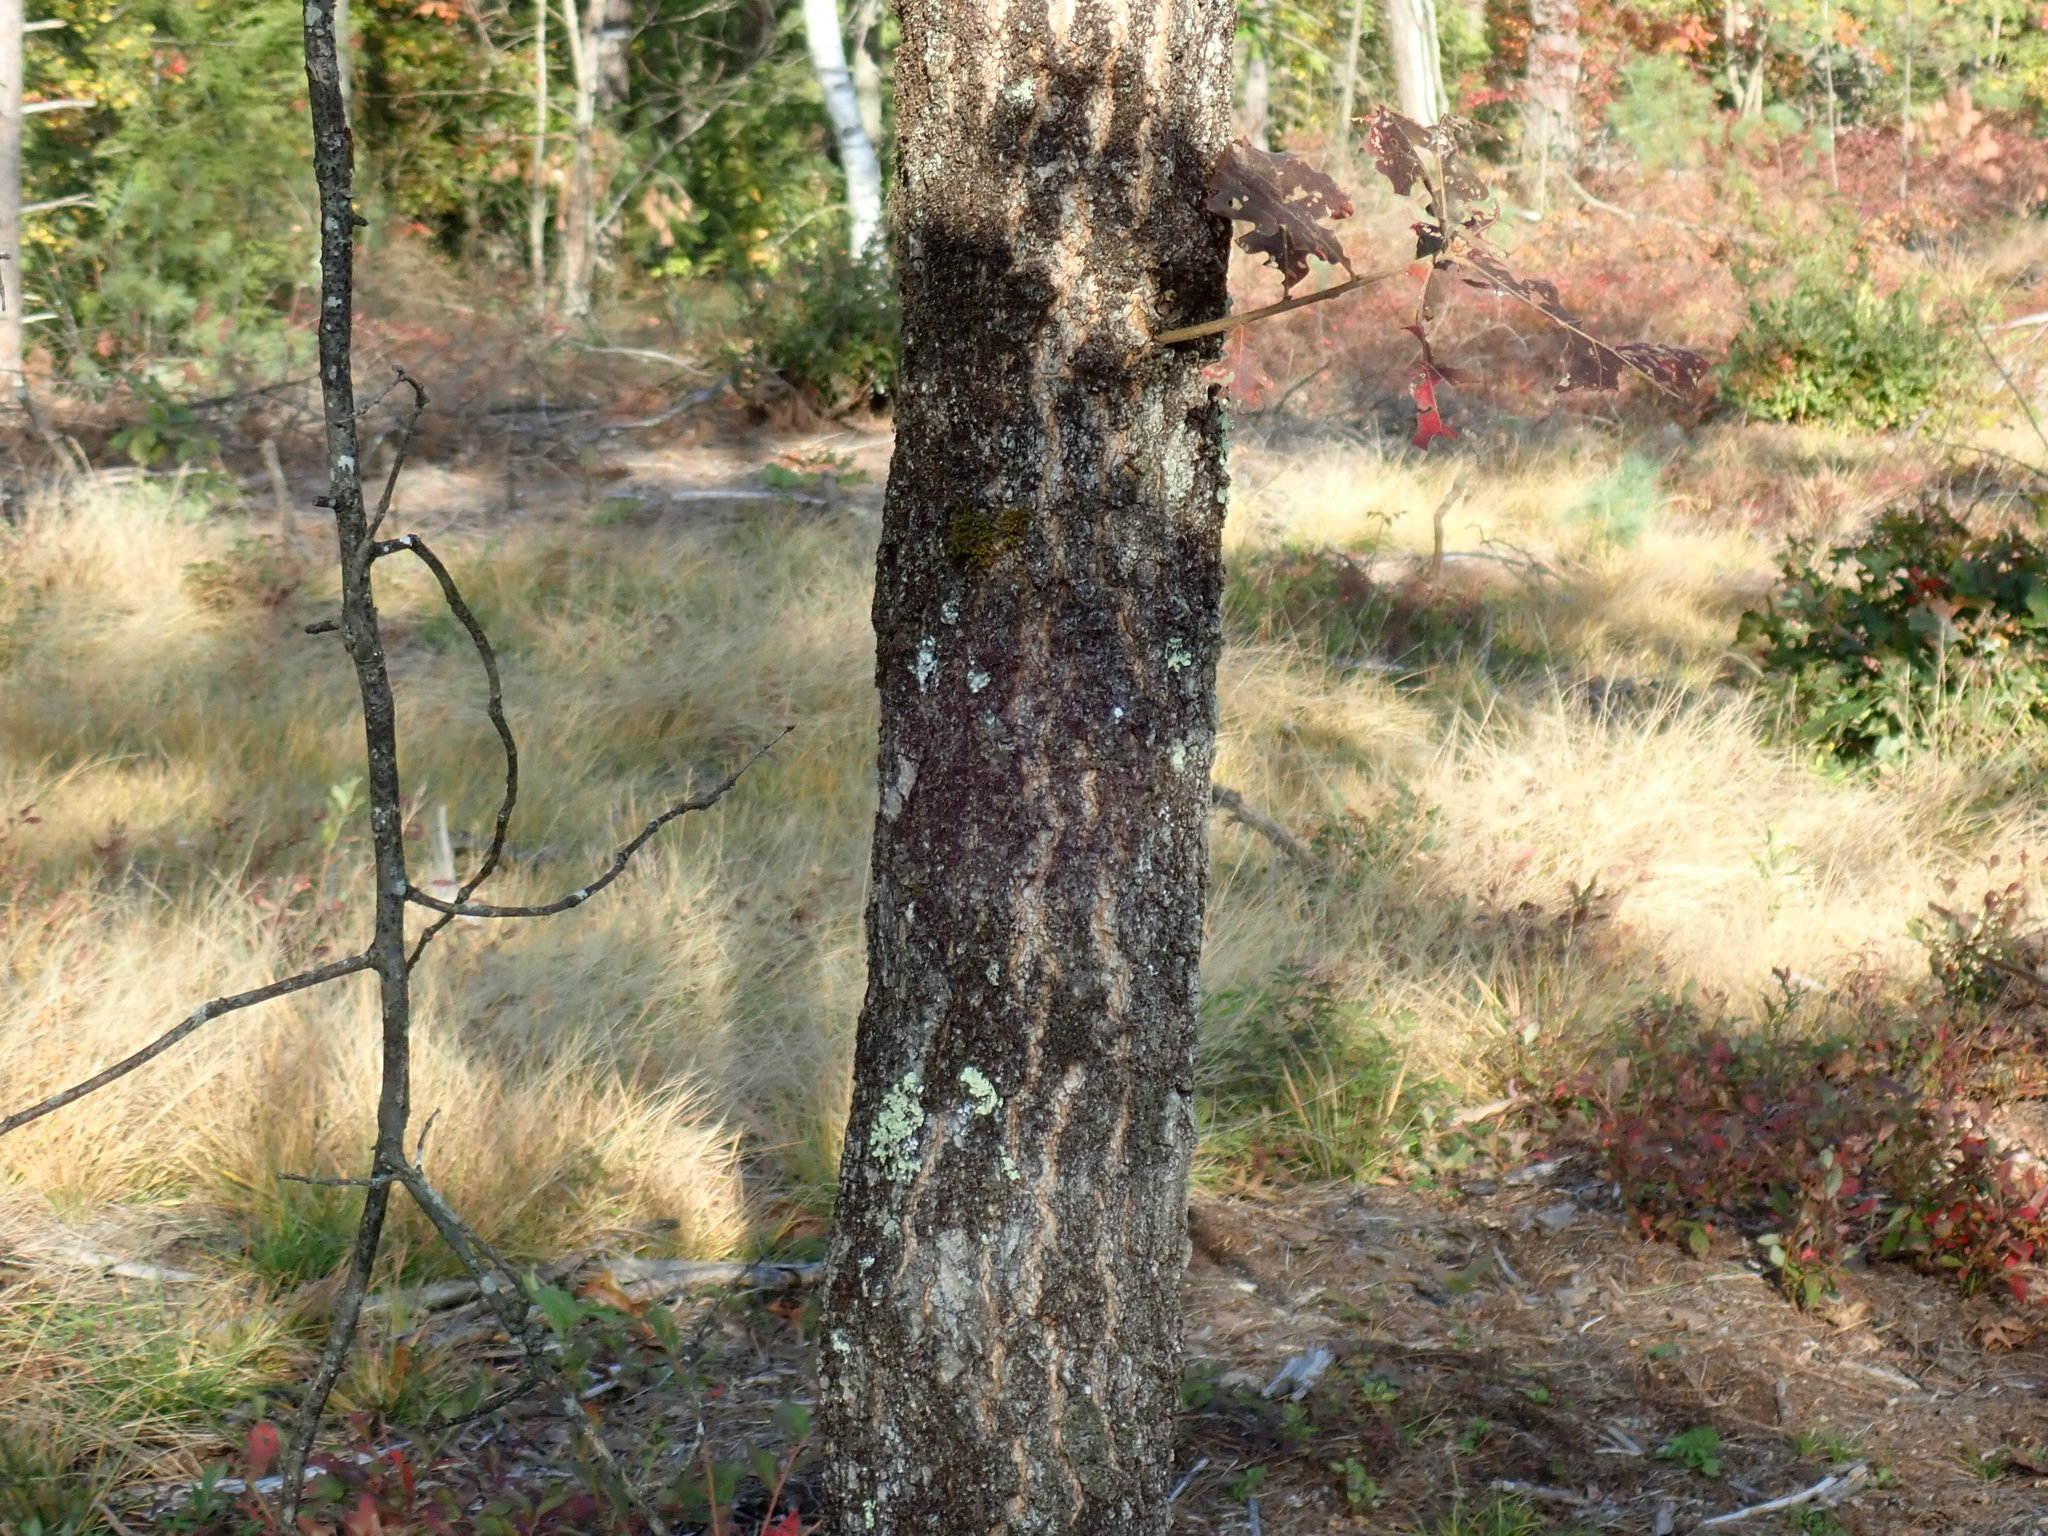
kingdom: Plantae
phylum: Tracheophyta
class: Magnoliopsida
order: Fagales
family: Fagaceae
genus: Quercus
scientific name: Quercus velutina
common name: Black oak
